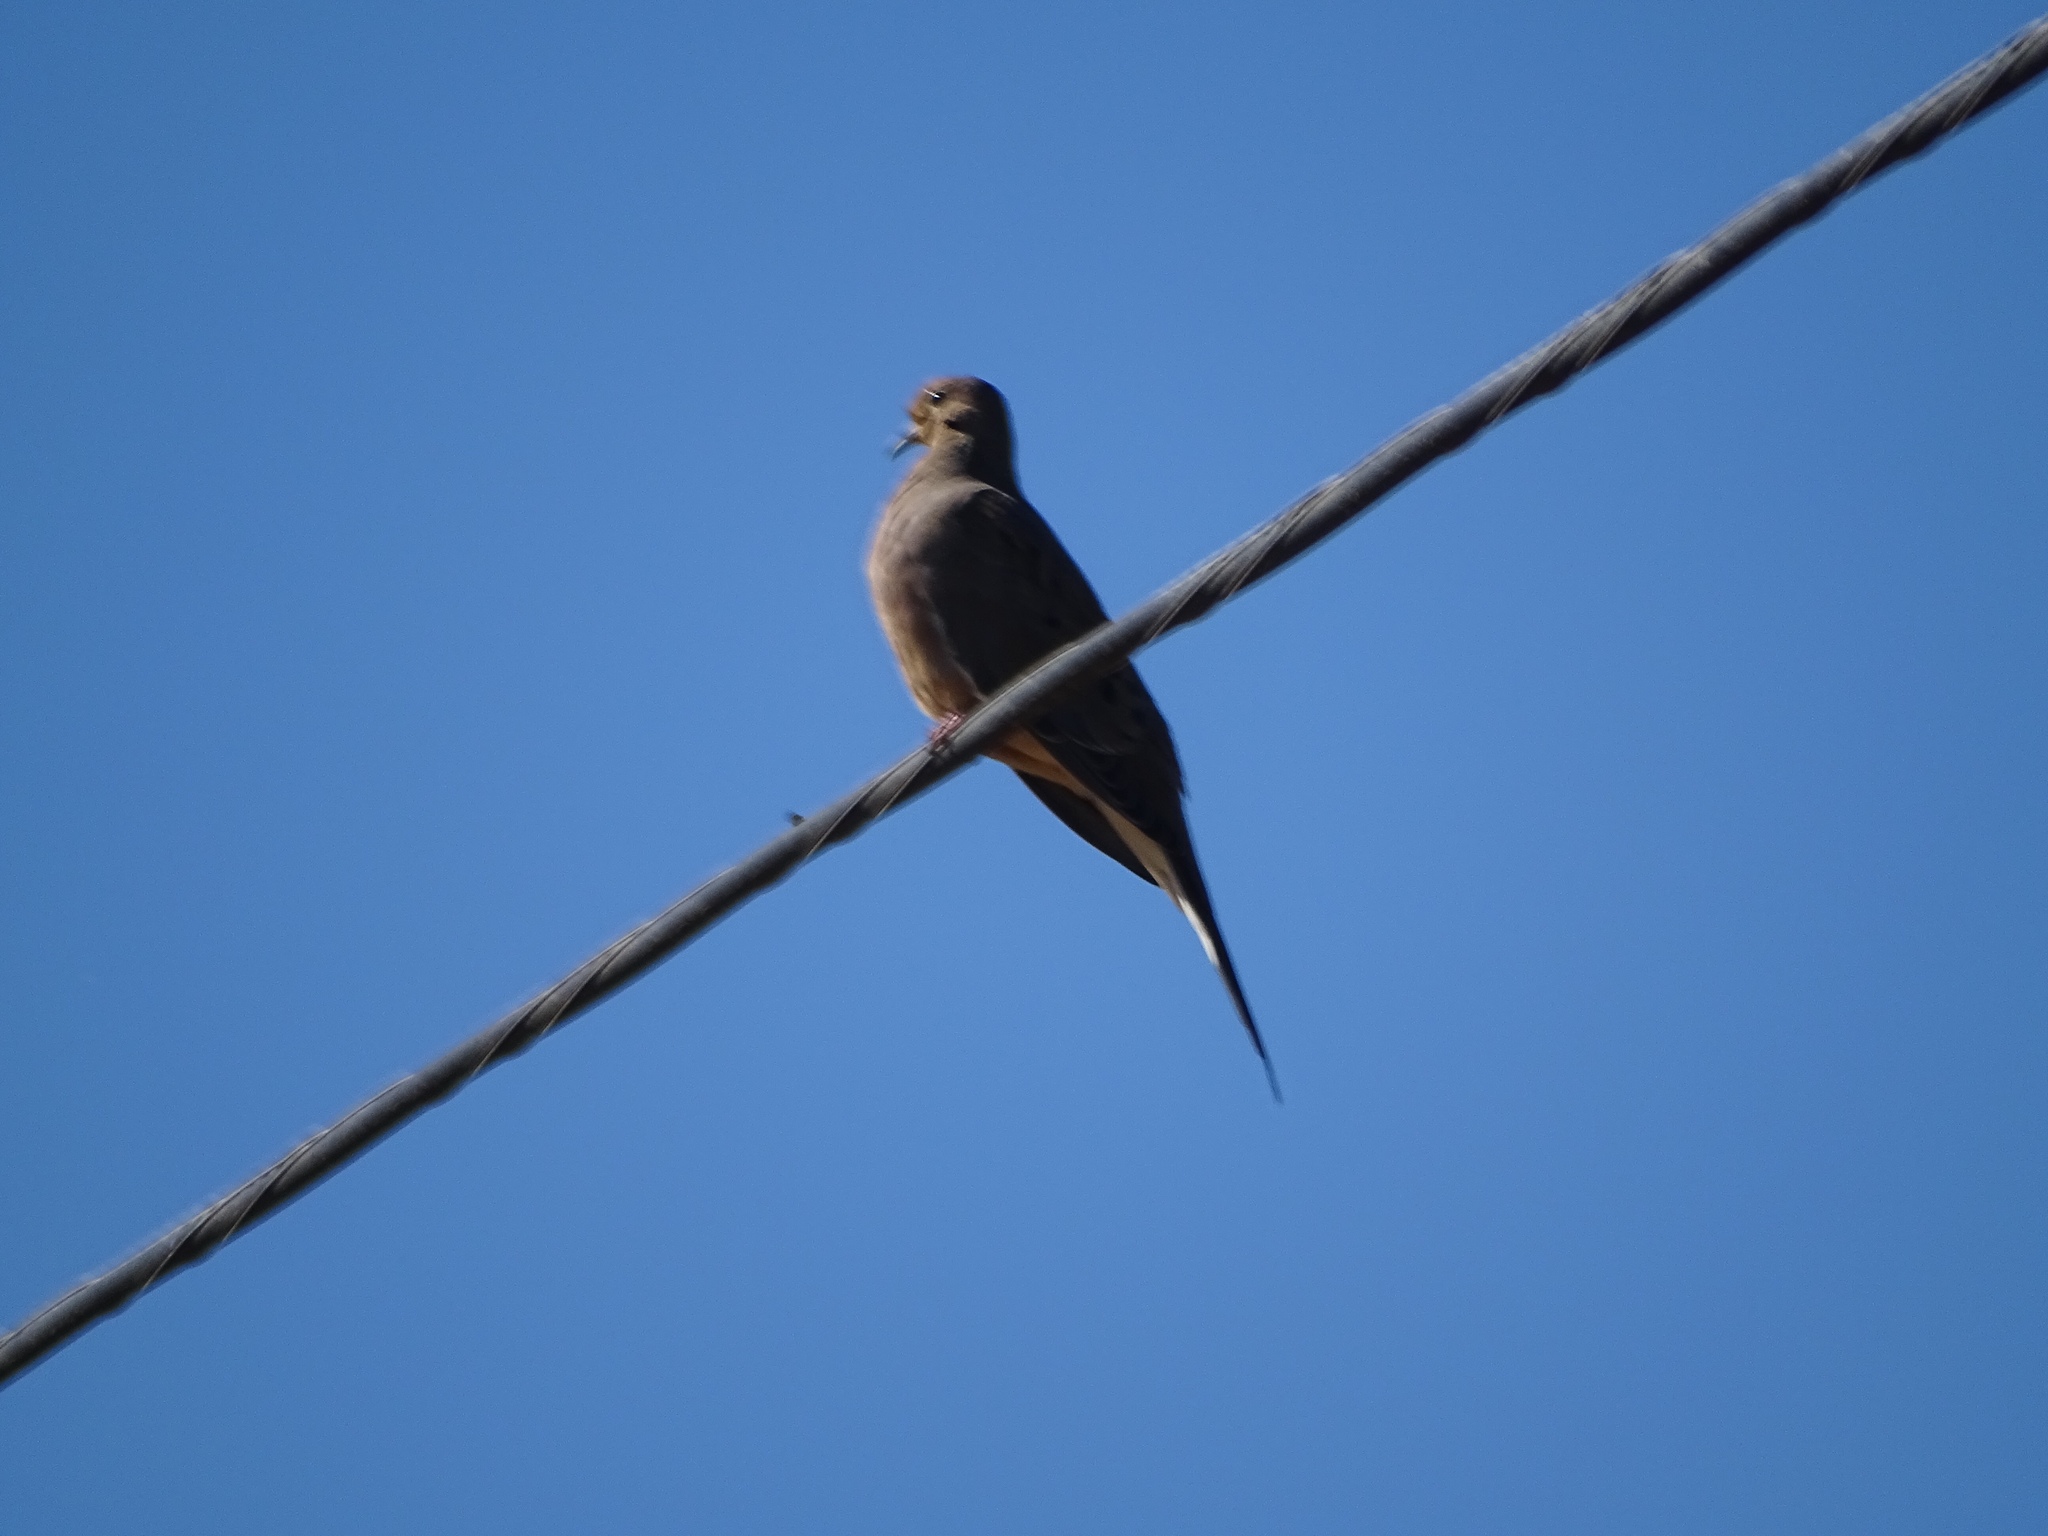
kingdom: Animalia
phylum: Chordata
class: Aves
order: Columbiformes
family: Columbidae
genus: Zenaida
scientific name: Zenaida macroura
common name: Mourning dove
